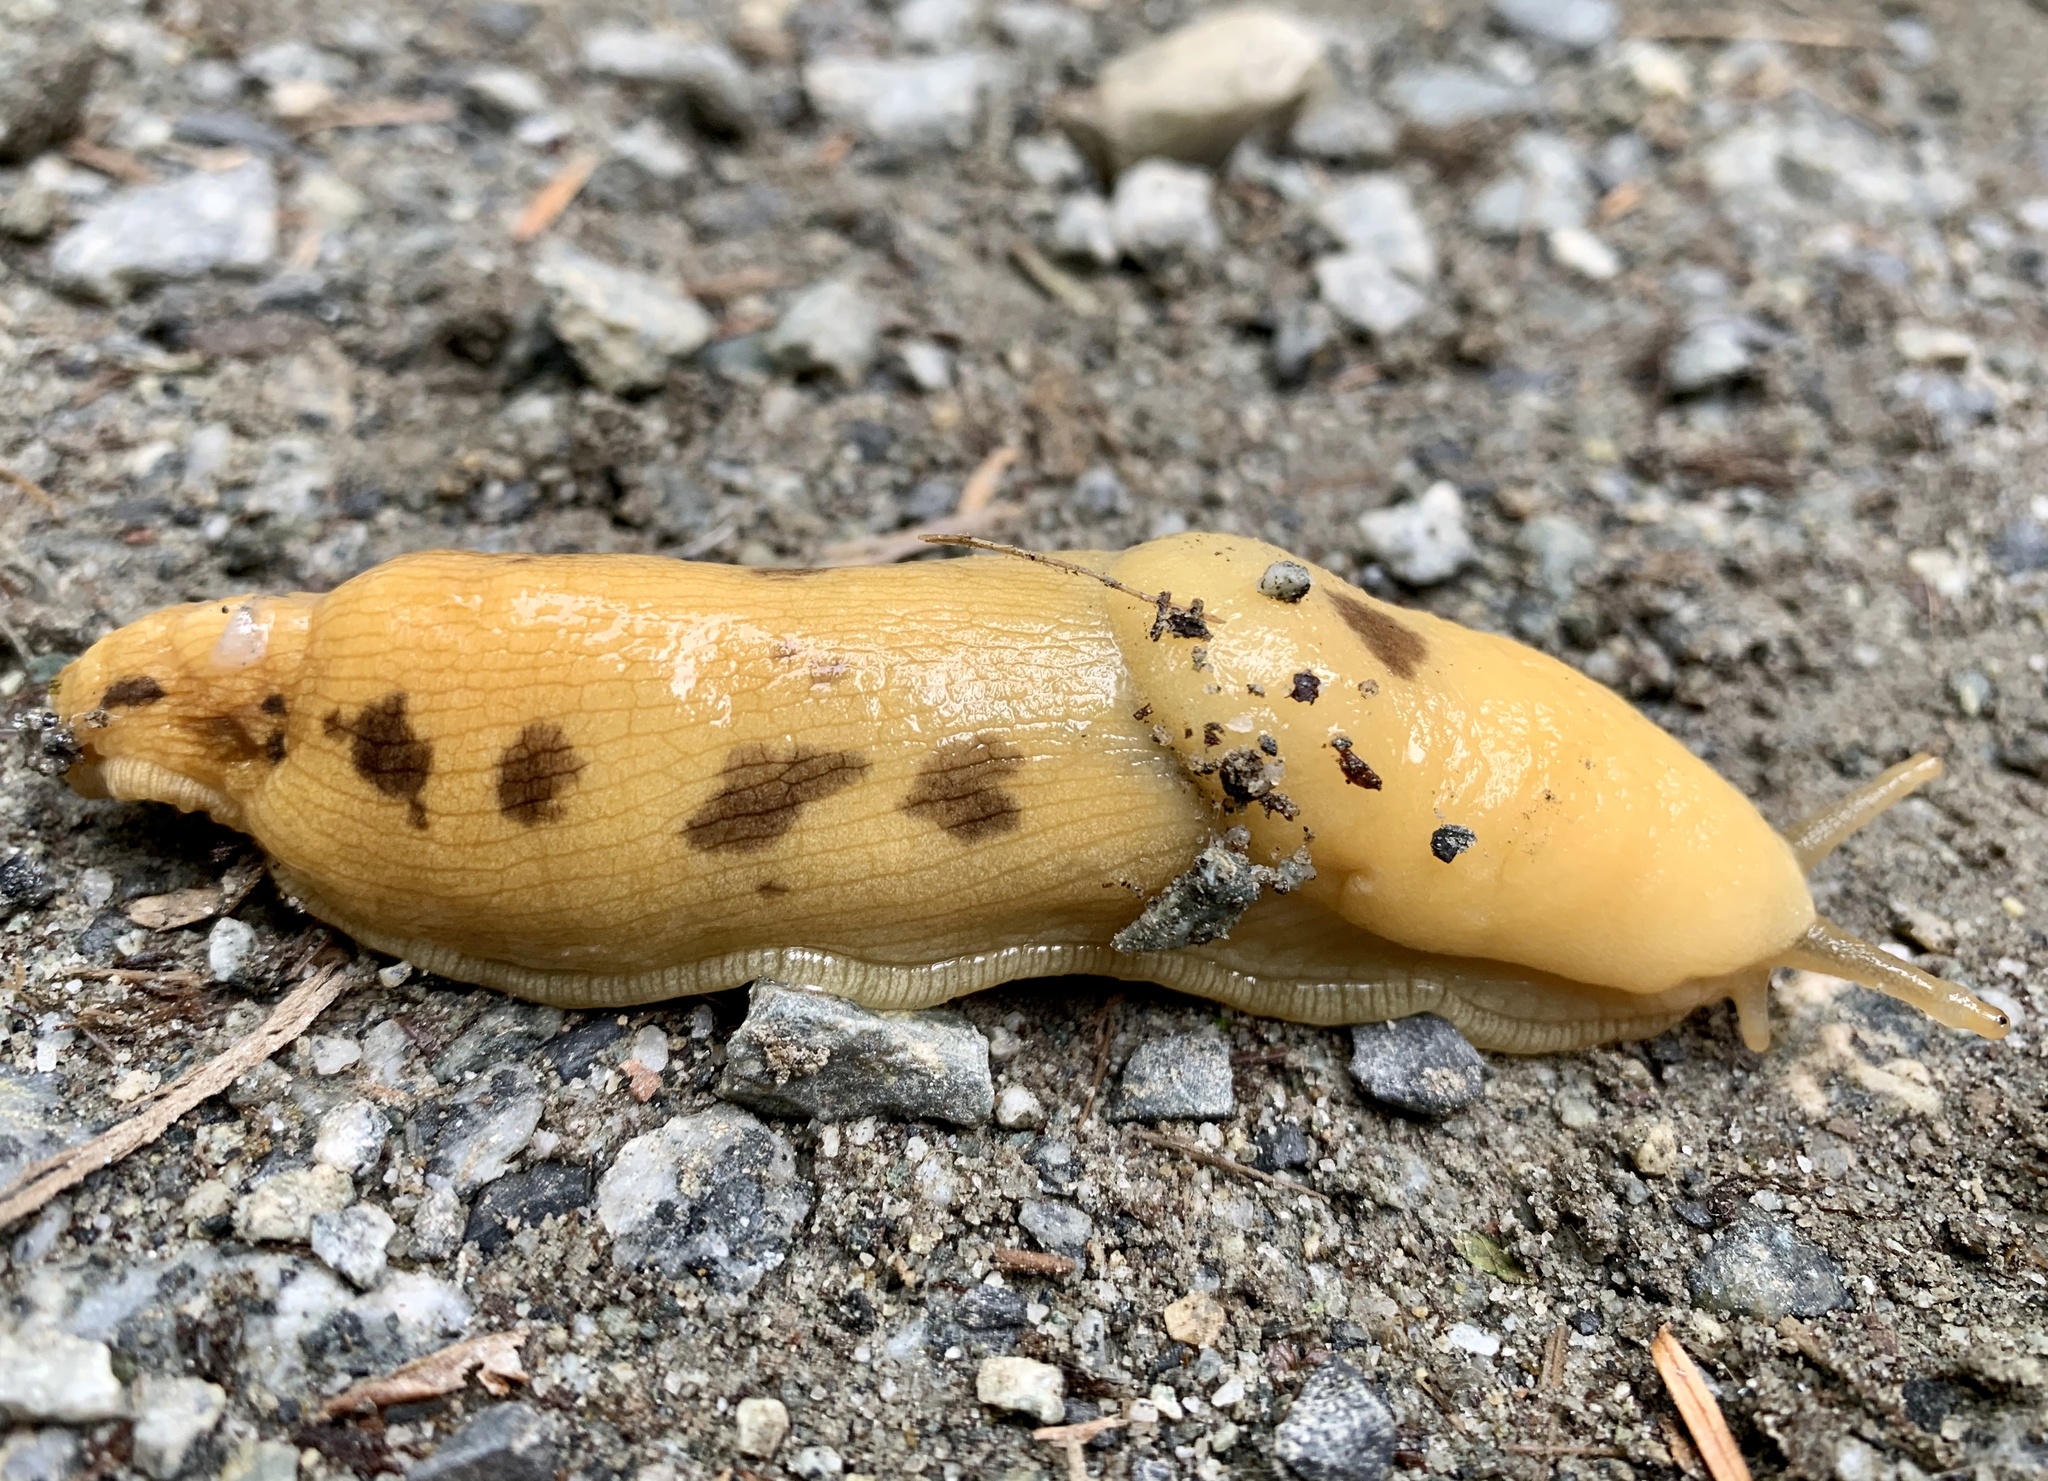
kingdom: Animalia
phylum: Mollusca
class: Gastropoda
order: Stylommatophora
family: Ariolimacidae
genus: Ariolimax
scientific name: Ariolimax columbianus
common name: Pacific banana slug
